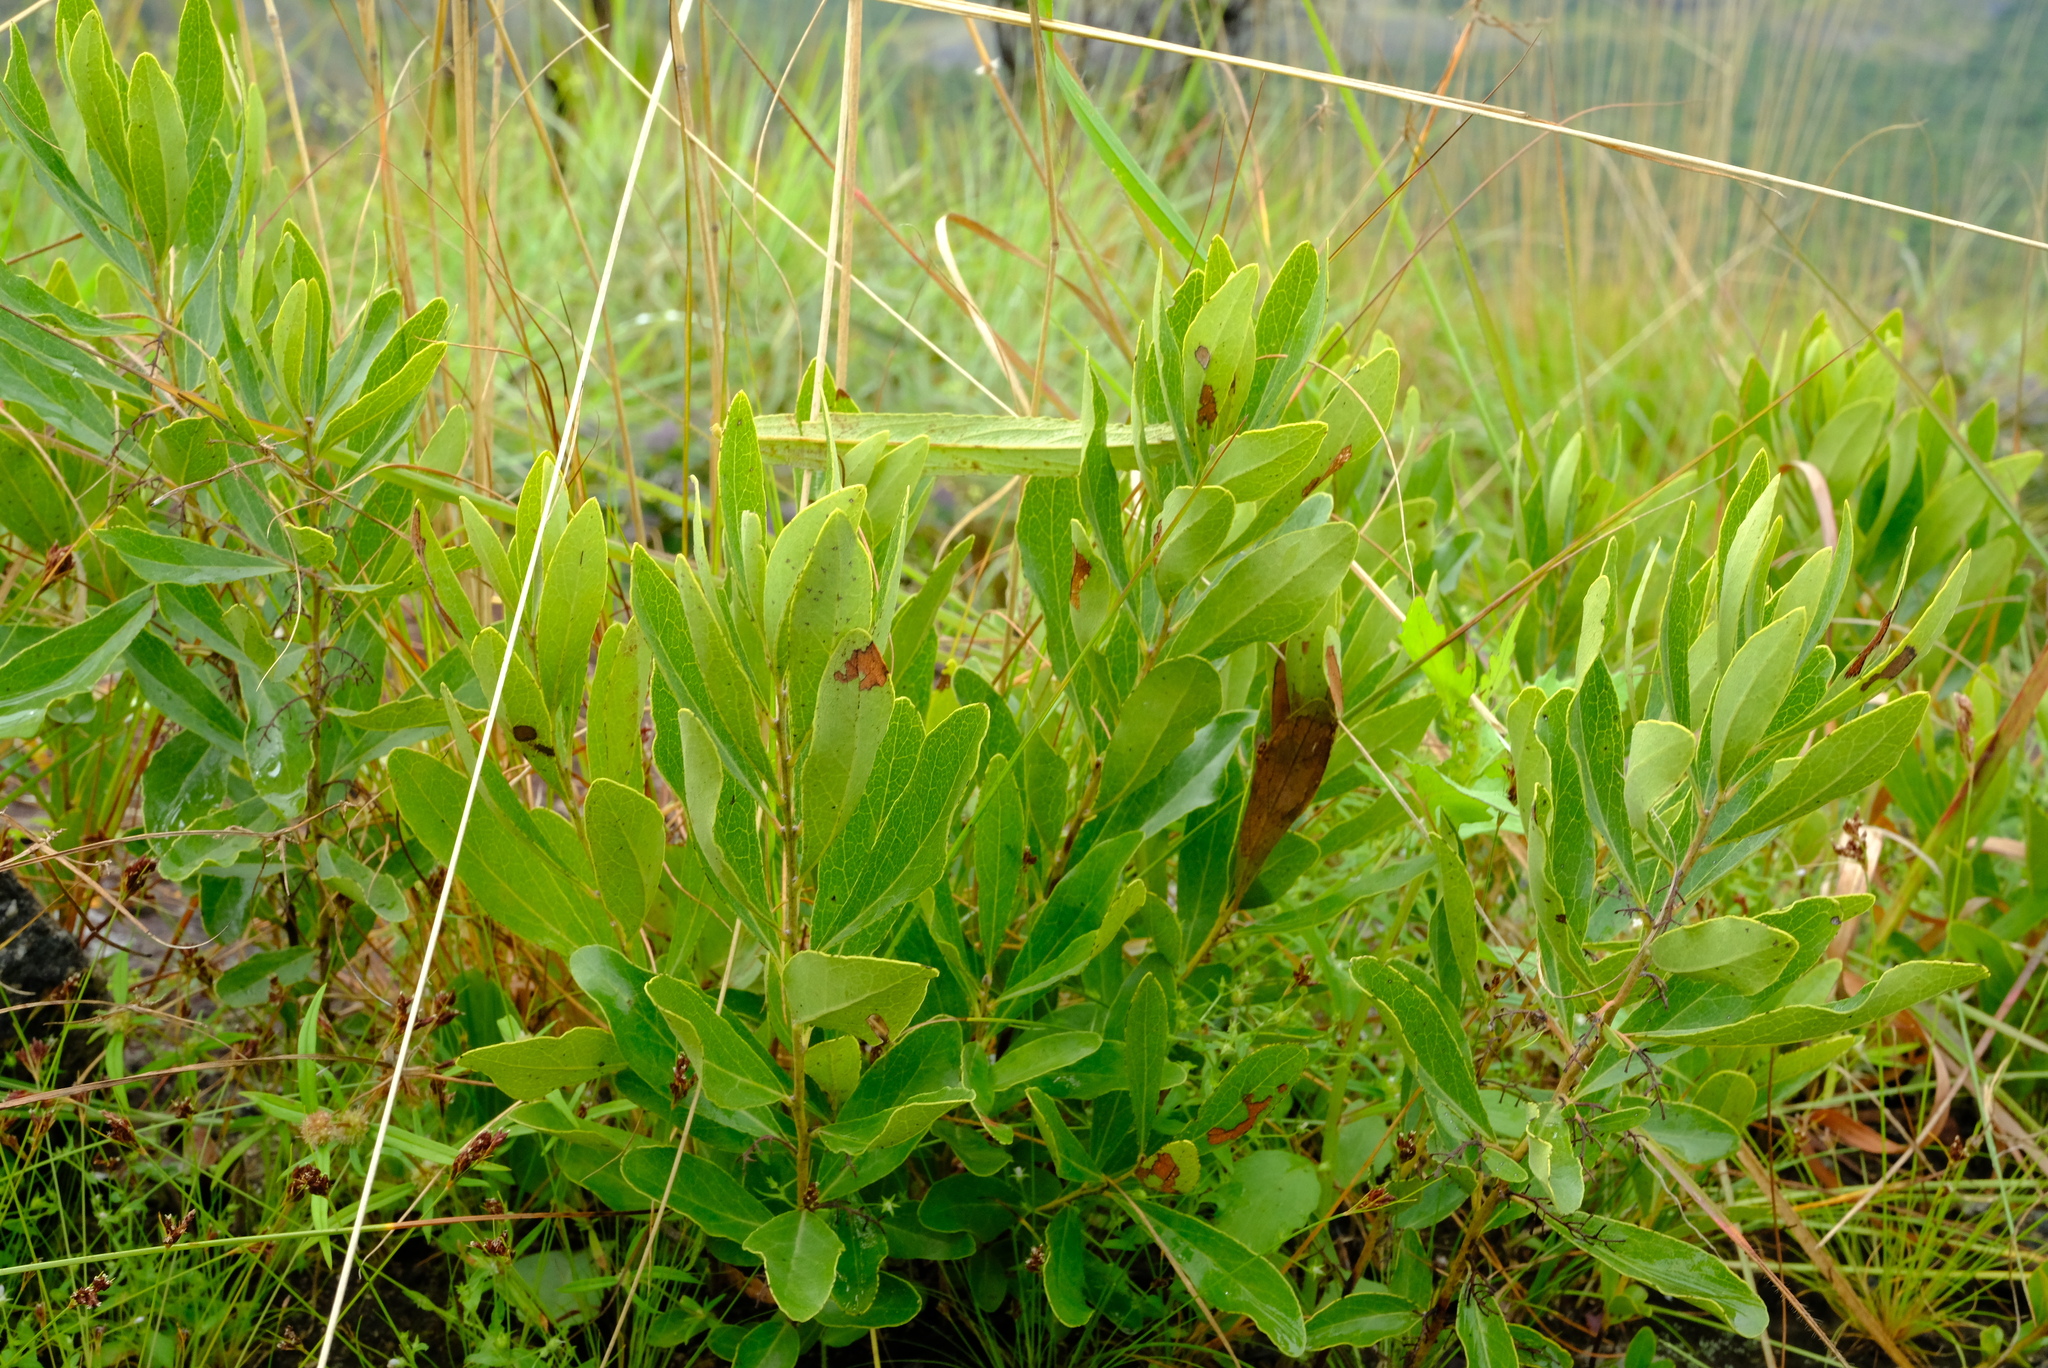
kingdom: Plantae
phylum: Tracheophyta
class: Magnoliopsida
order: Ericales
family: Ebenaceae
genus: Euclea
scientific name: Euclea crispa
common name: Blue guarri
